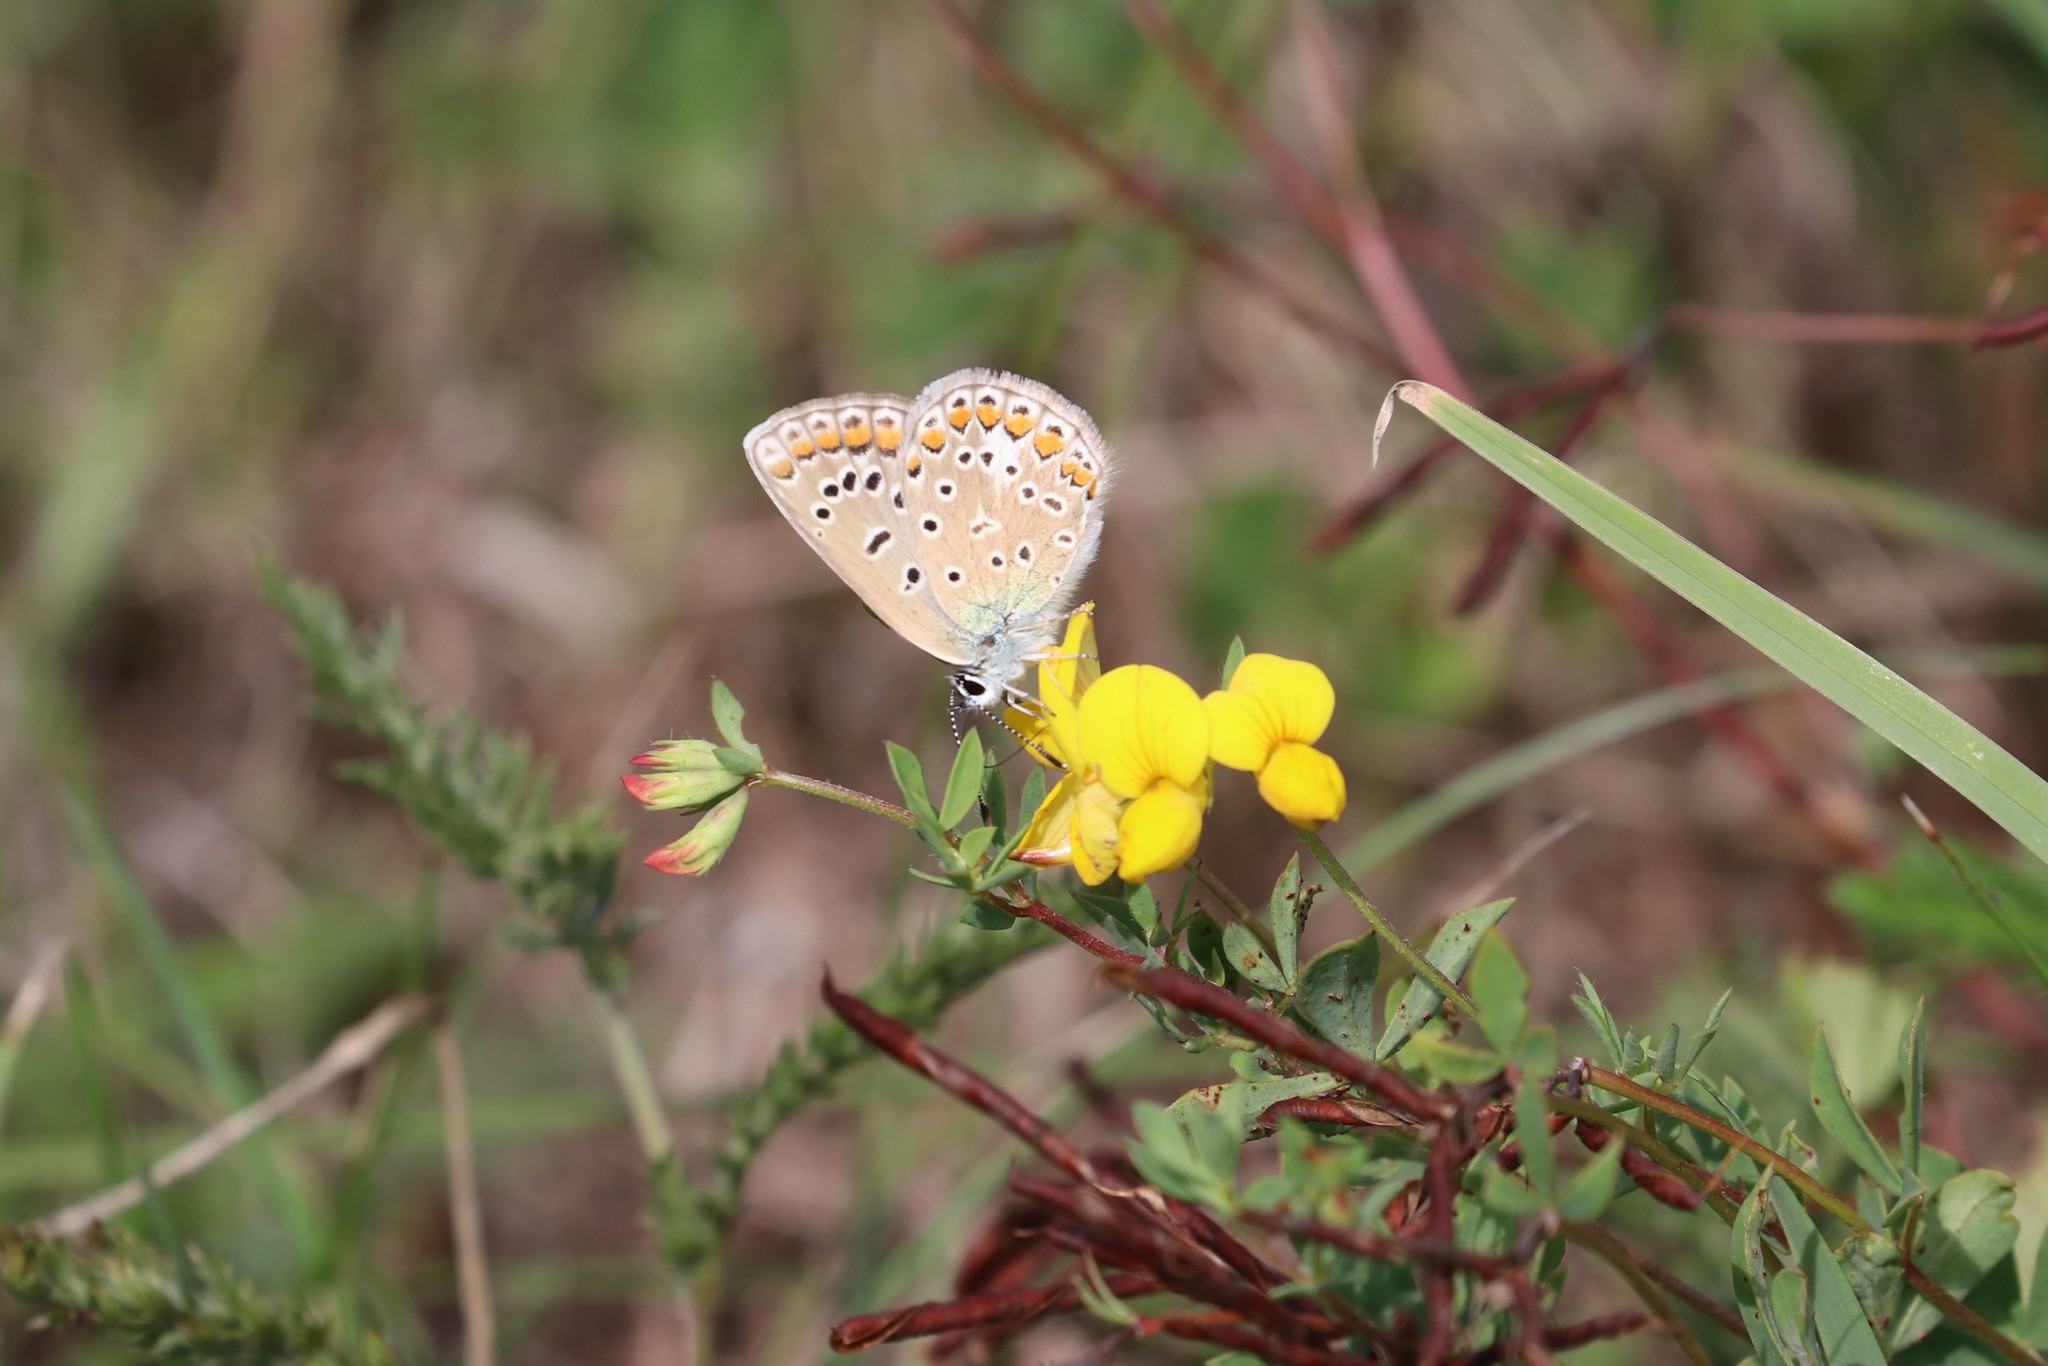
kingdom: Animalia
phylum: Arthropoda
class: Insecta
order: Lepidoptera
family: Lycaenidae
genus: Polyommatus
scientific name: Polyommatus icarus
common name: Common blue
